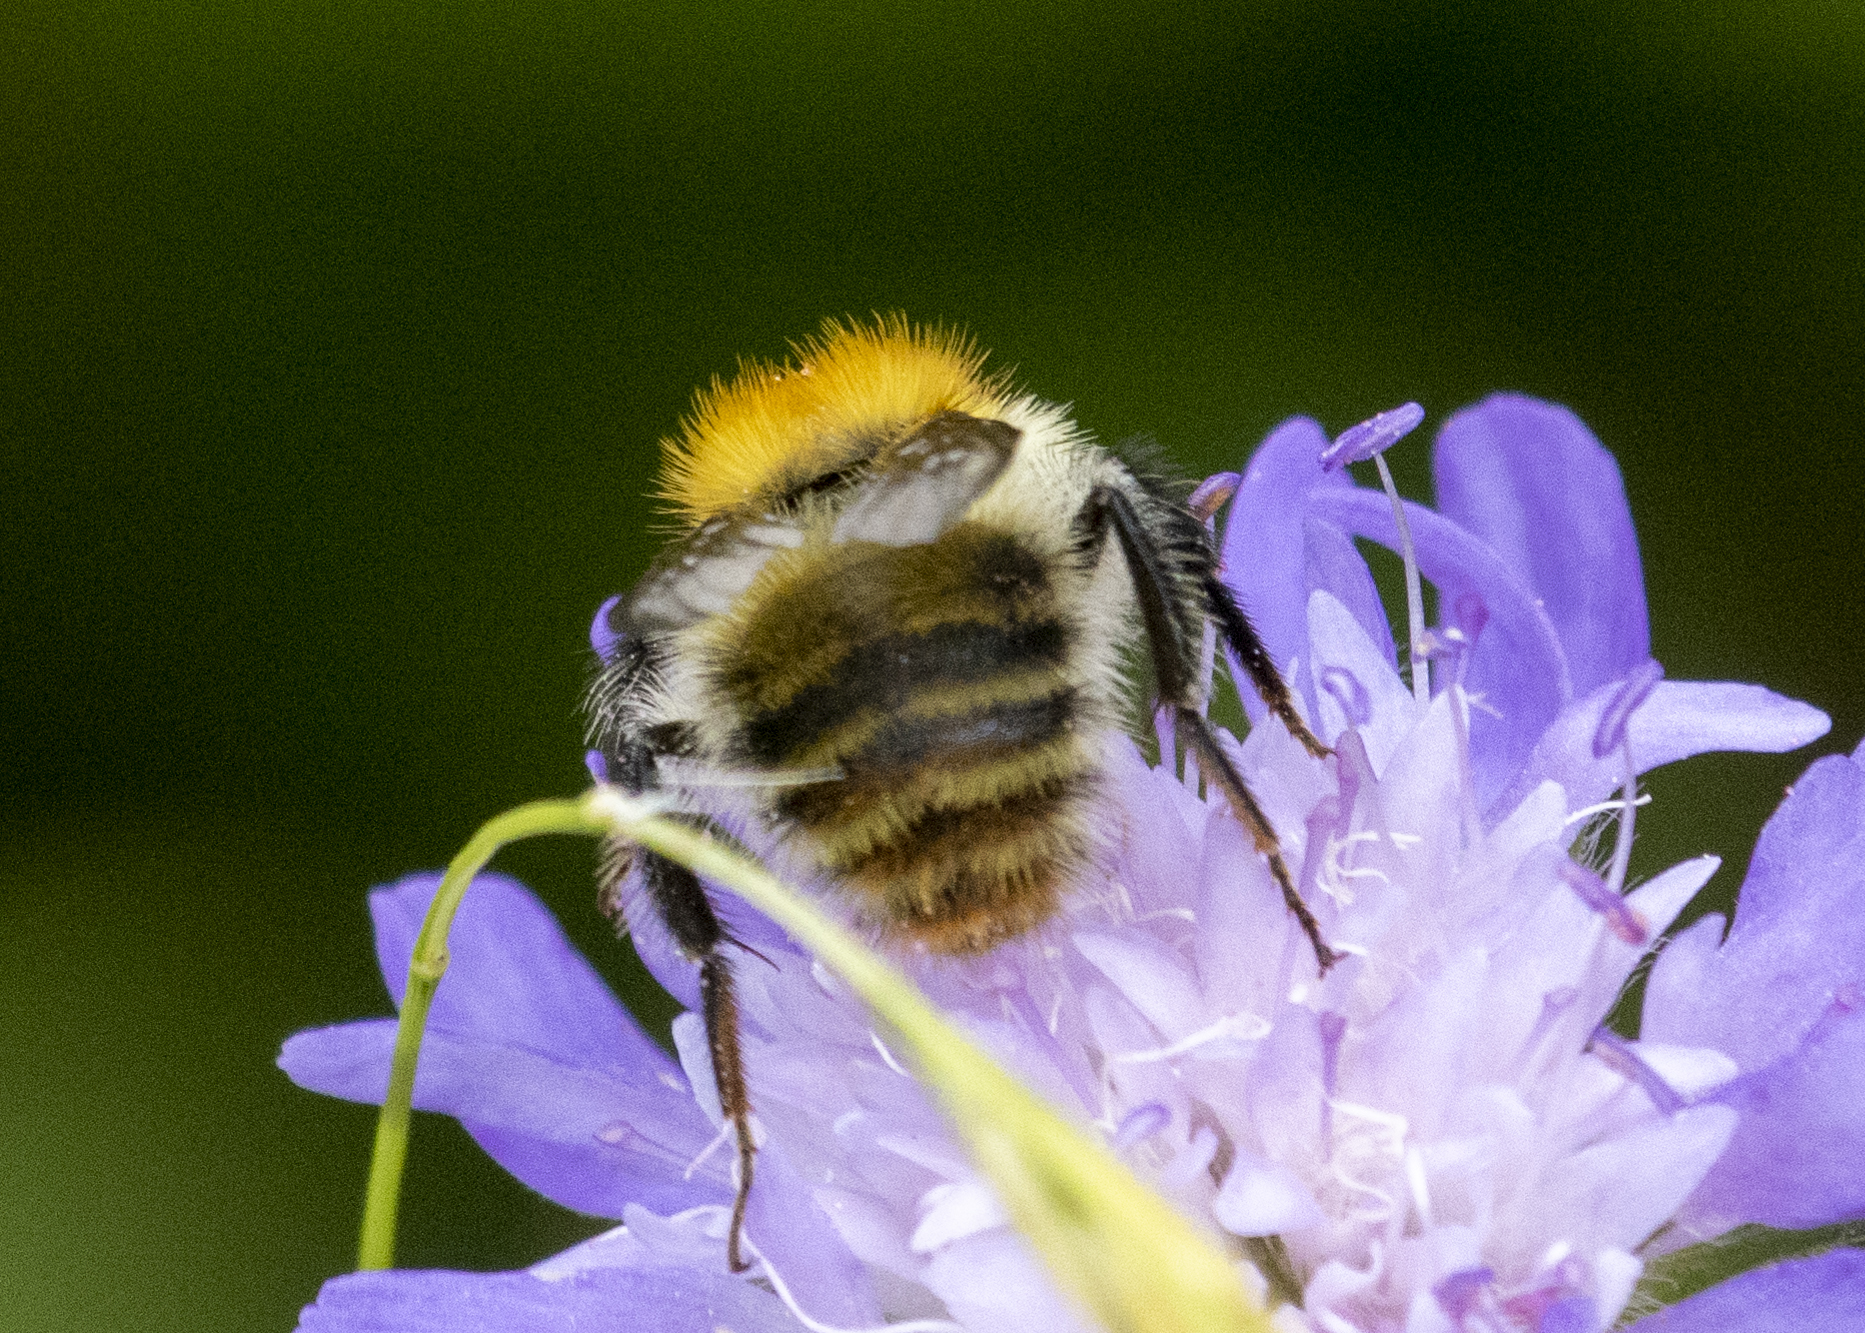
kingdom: Animalia
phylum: Arthropoda
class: Insecta
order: Hymenoptera
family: Apidae
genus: Bombus
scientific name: Bombus pascuorum
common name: Common carder bee
